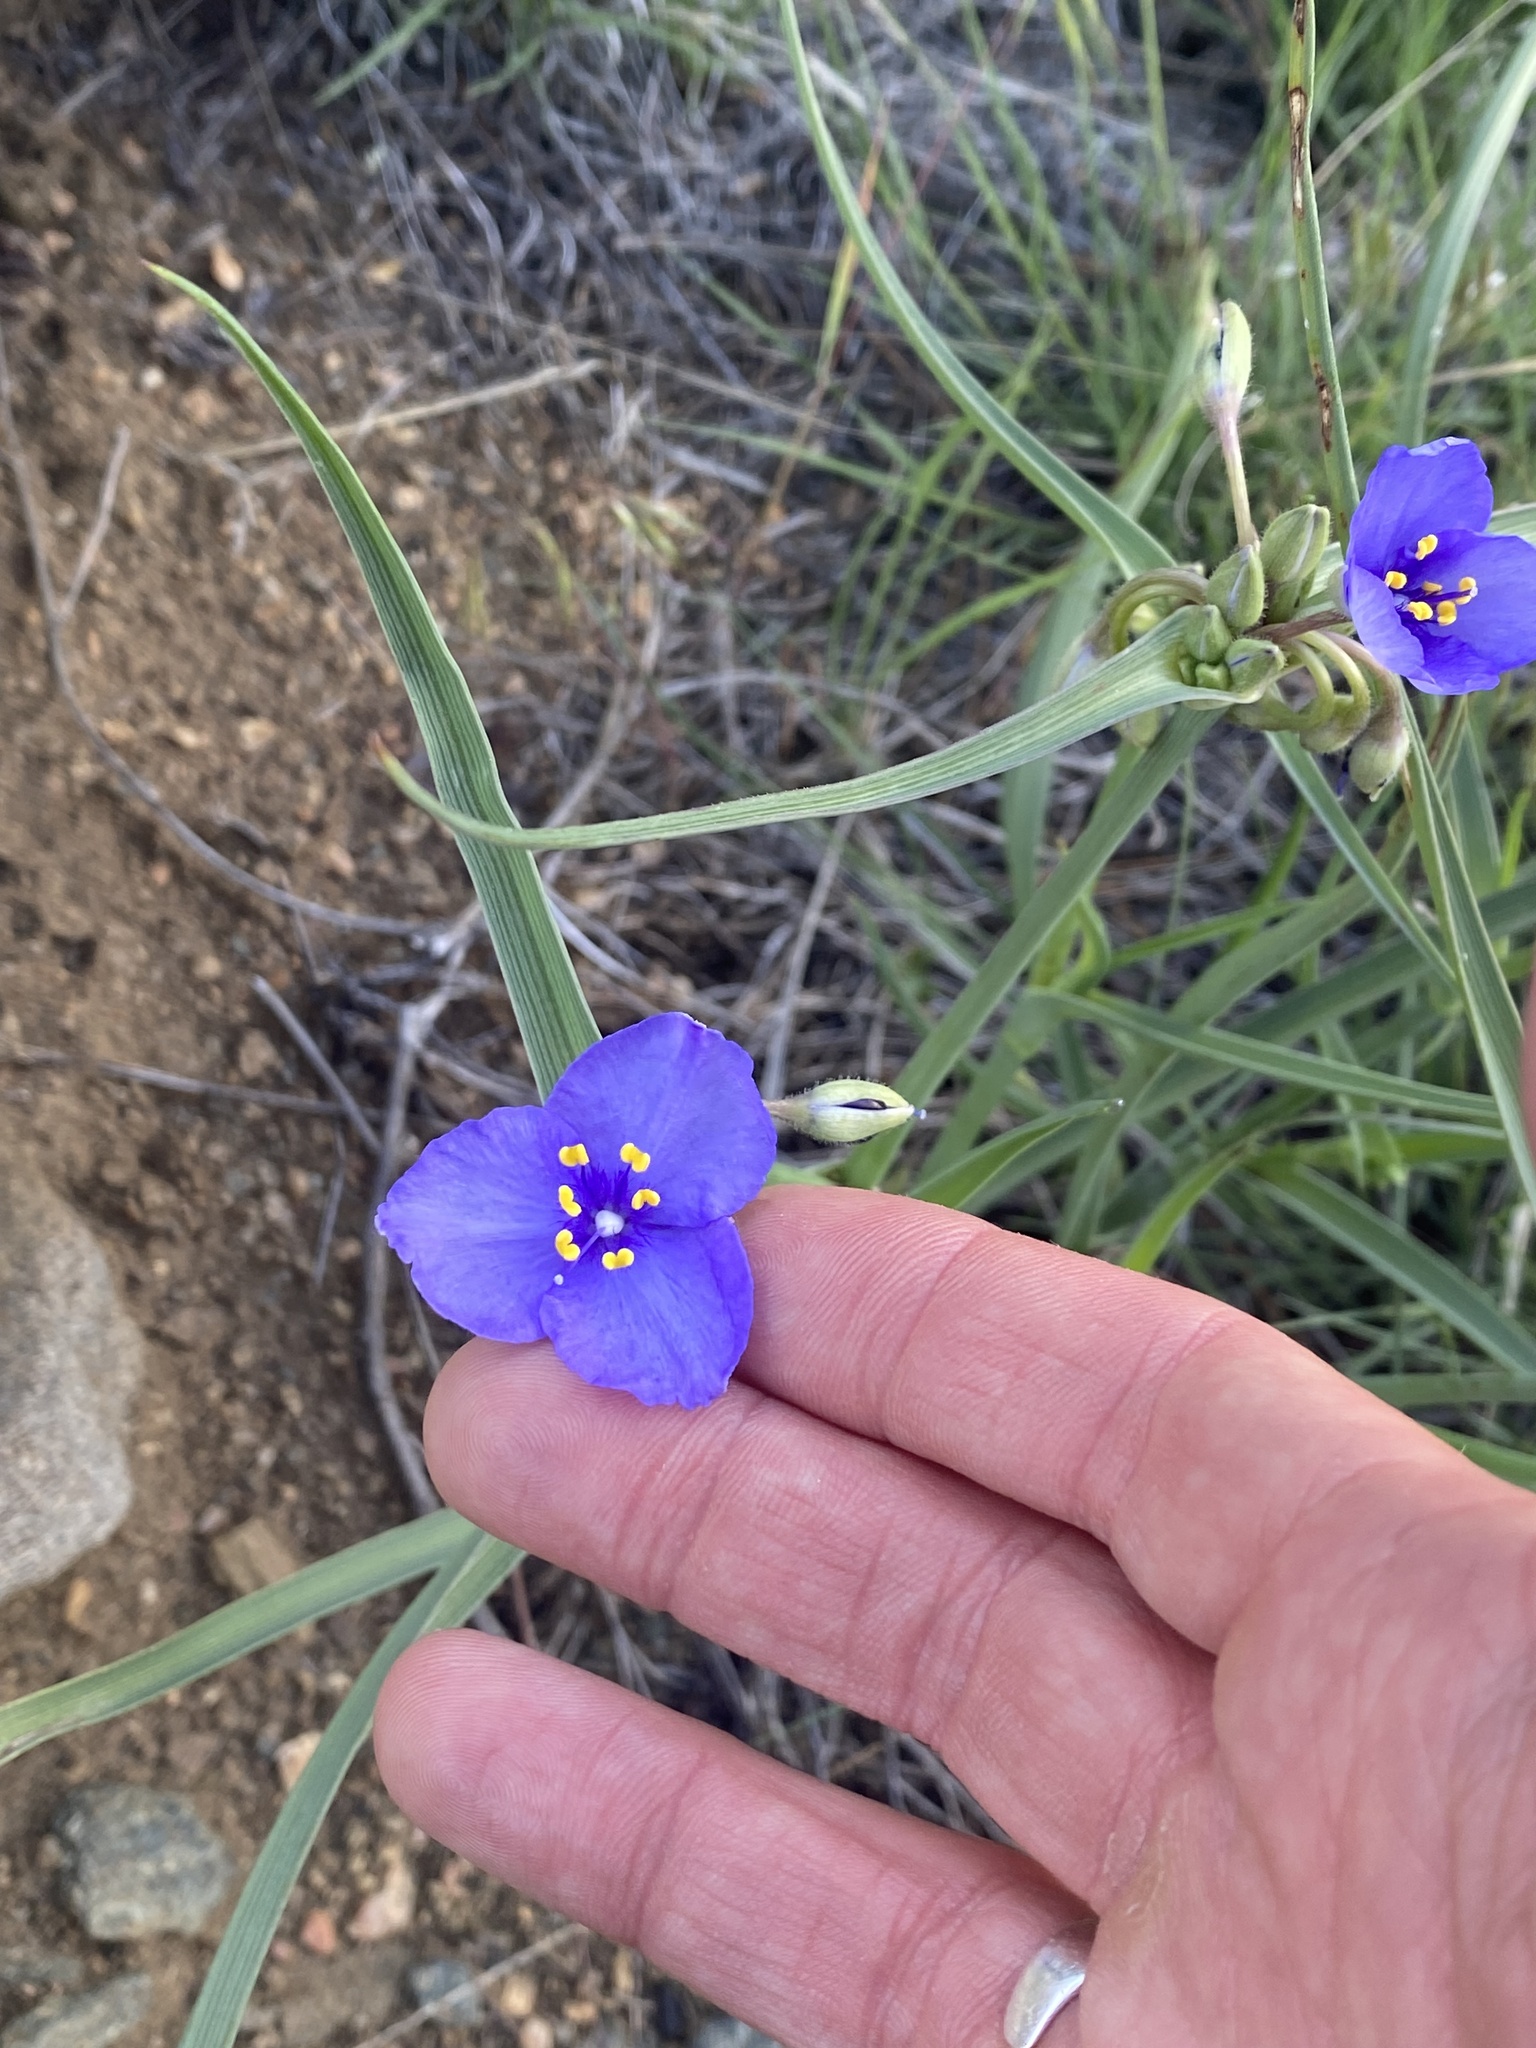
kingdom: Plantae
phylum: Tracheophyta
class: Liliopsida
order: Commelinales
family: Commelinaceae
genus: Tradescantia
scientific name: Tradescantia occidentalis
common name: Prairie spiderwort
